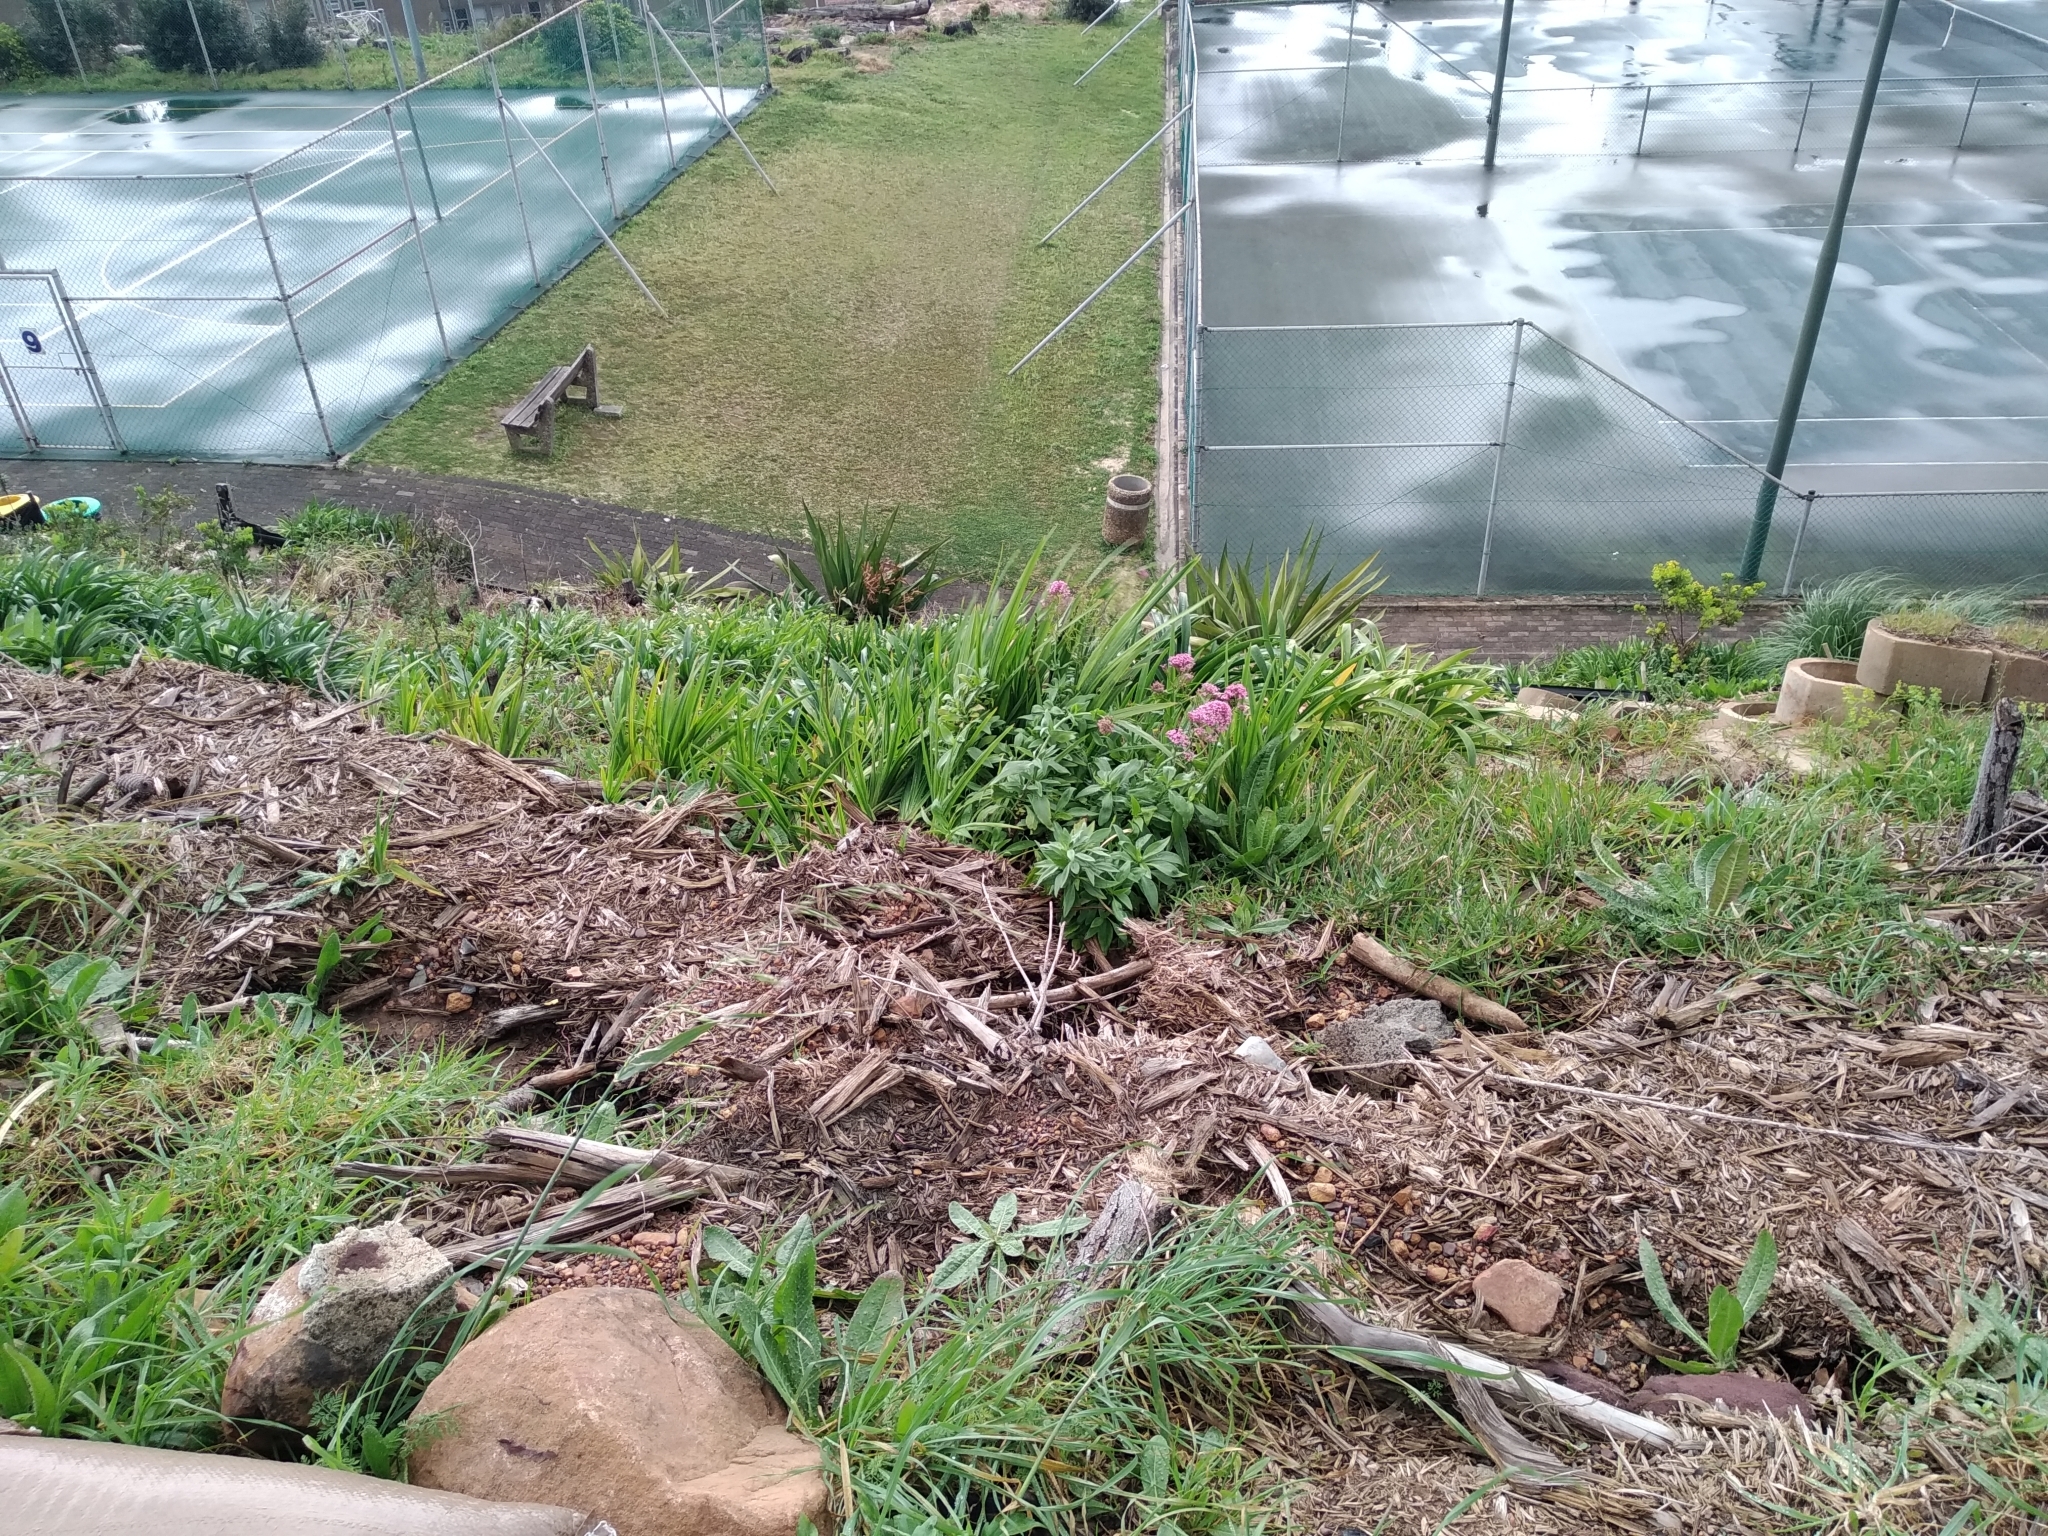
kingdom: Plantae
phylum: Tracheophyta
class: Magnoliopsida
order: Dipsacales
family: Caprifoliaceae
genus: Centranthus
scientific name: Centranthus ruber
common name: Red valerian
